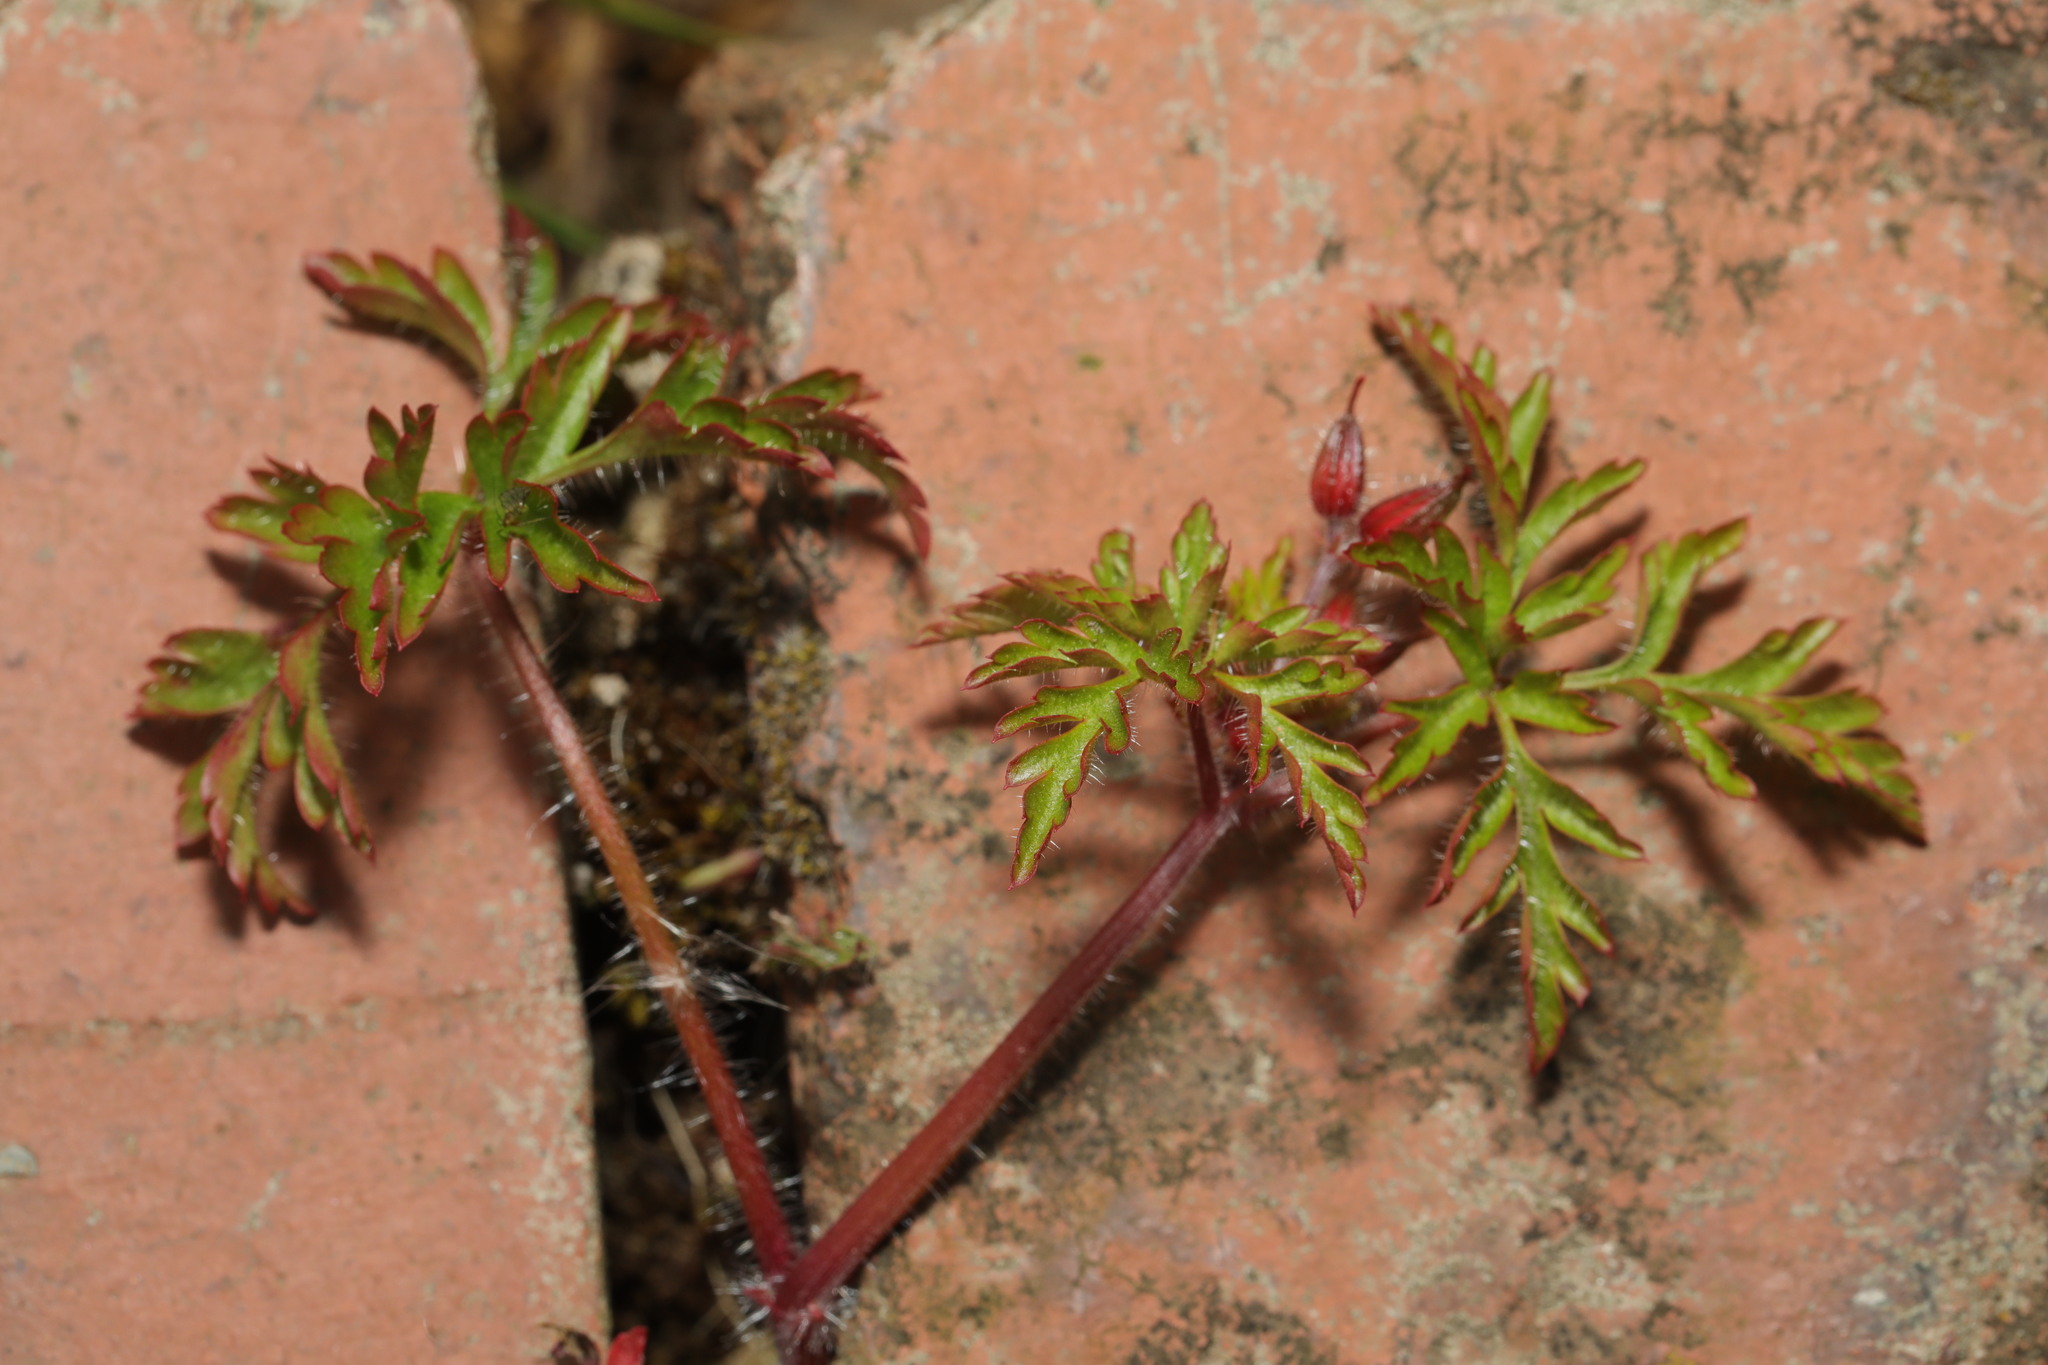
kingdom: Plantae
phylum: Tracheophyta
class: Magnoliopsida
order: Geraniales
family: Geraniaceae
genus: Geranium
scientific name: Geranium robertianum
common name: Herb-robert
